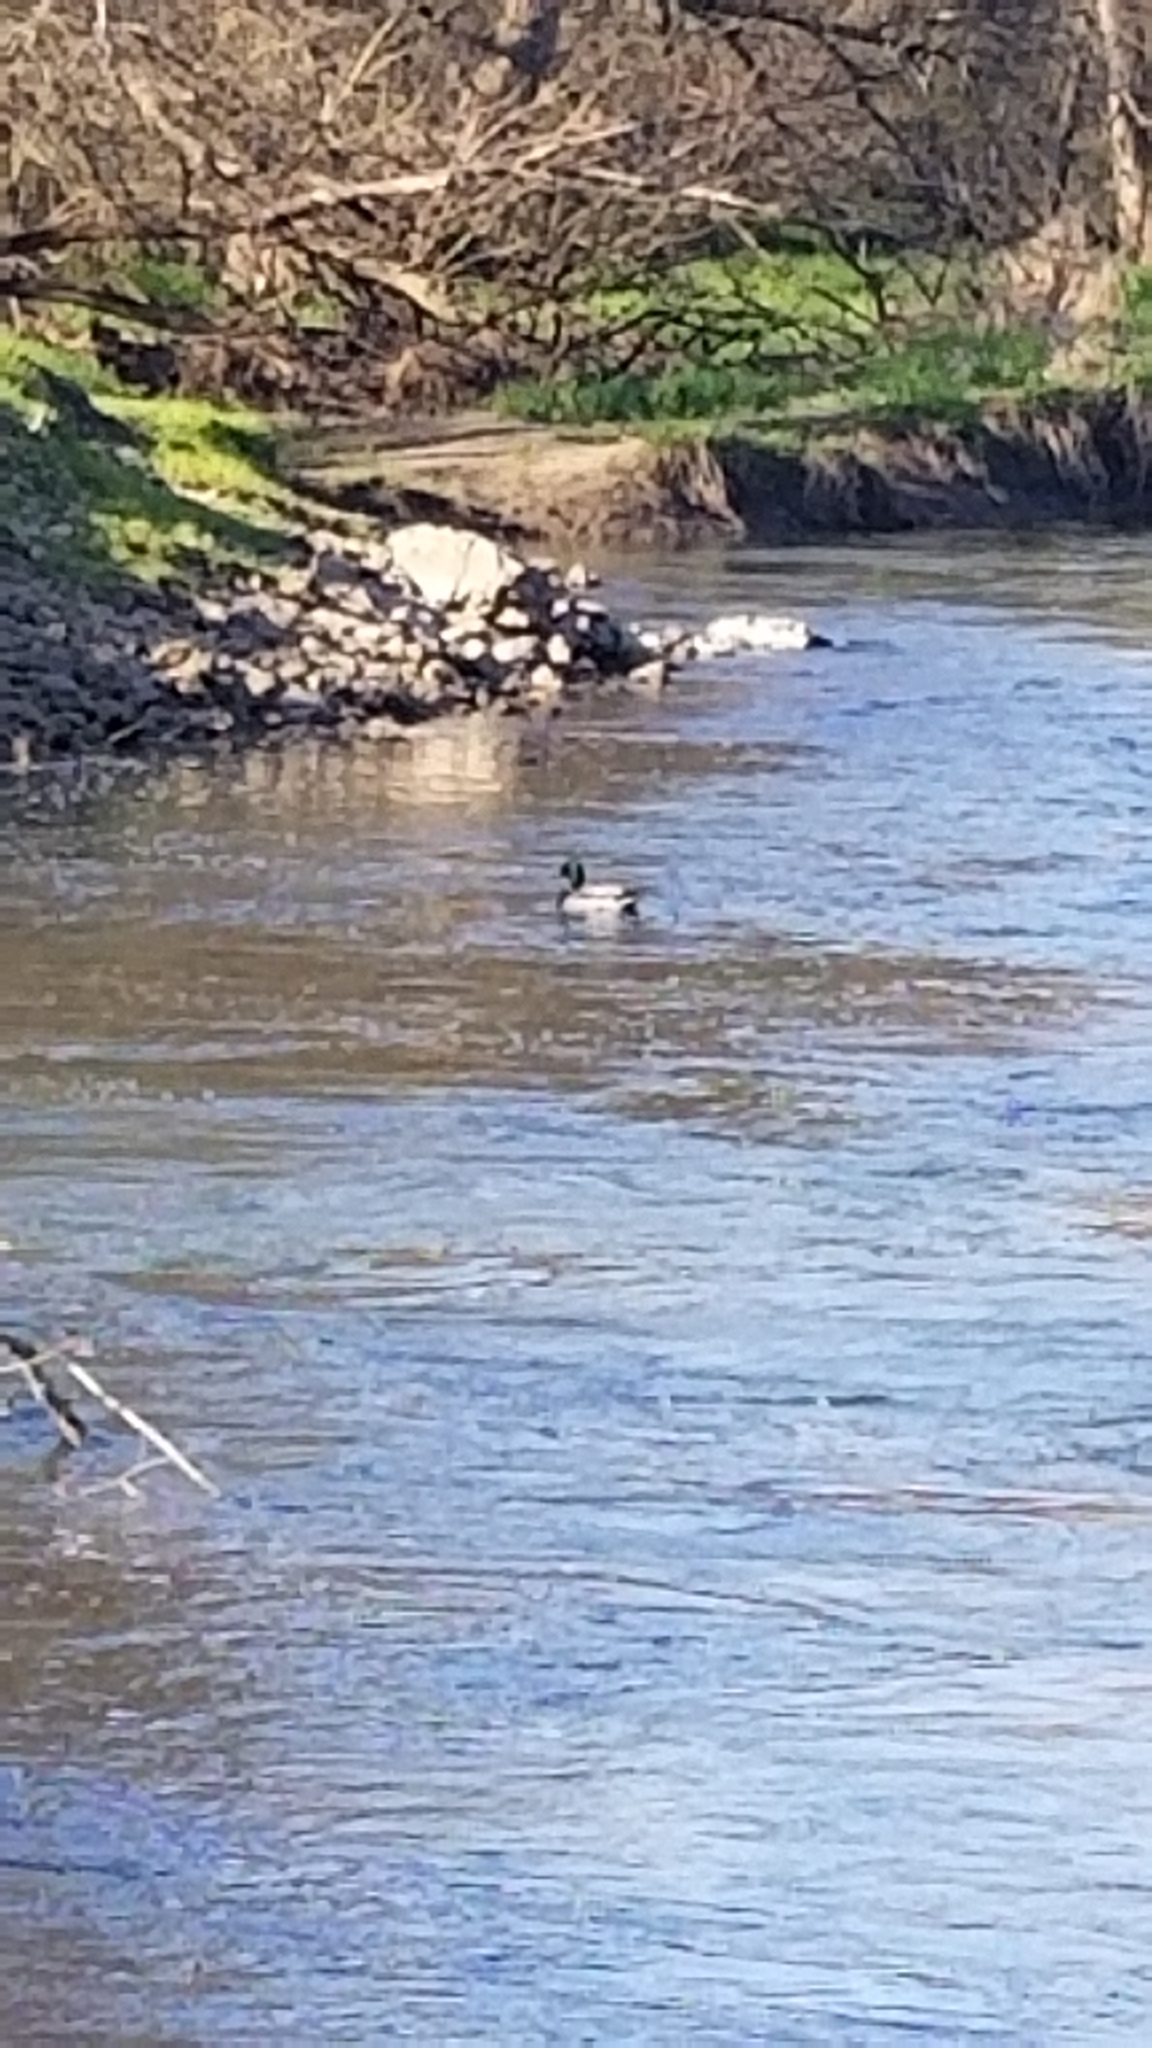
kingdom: Animalia
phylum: Chordata
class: Aves
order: Anseriformes
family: Anatidae
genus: Anas
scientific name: Anas platyrhynchos
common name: Mallard
